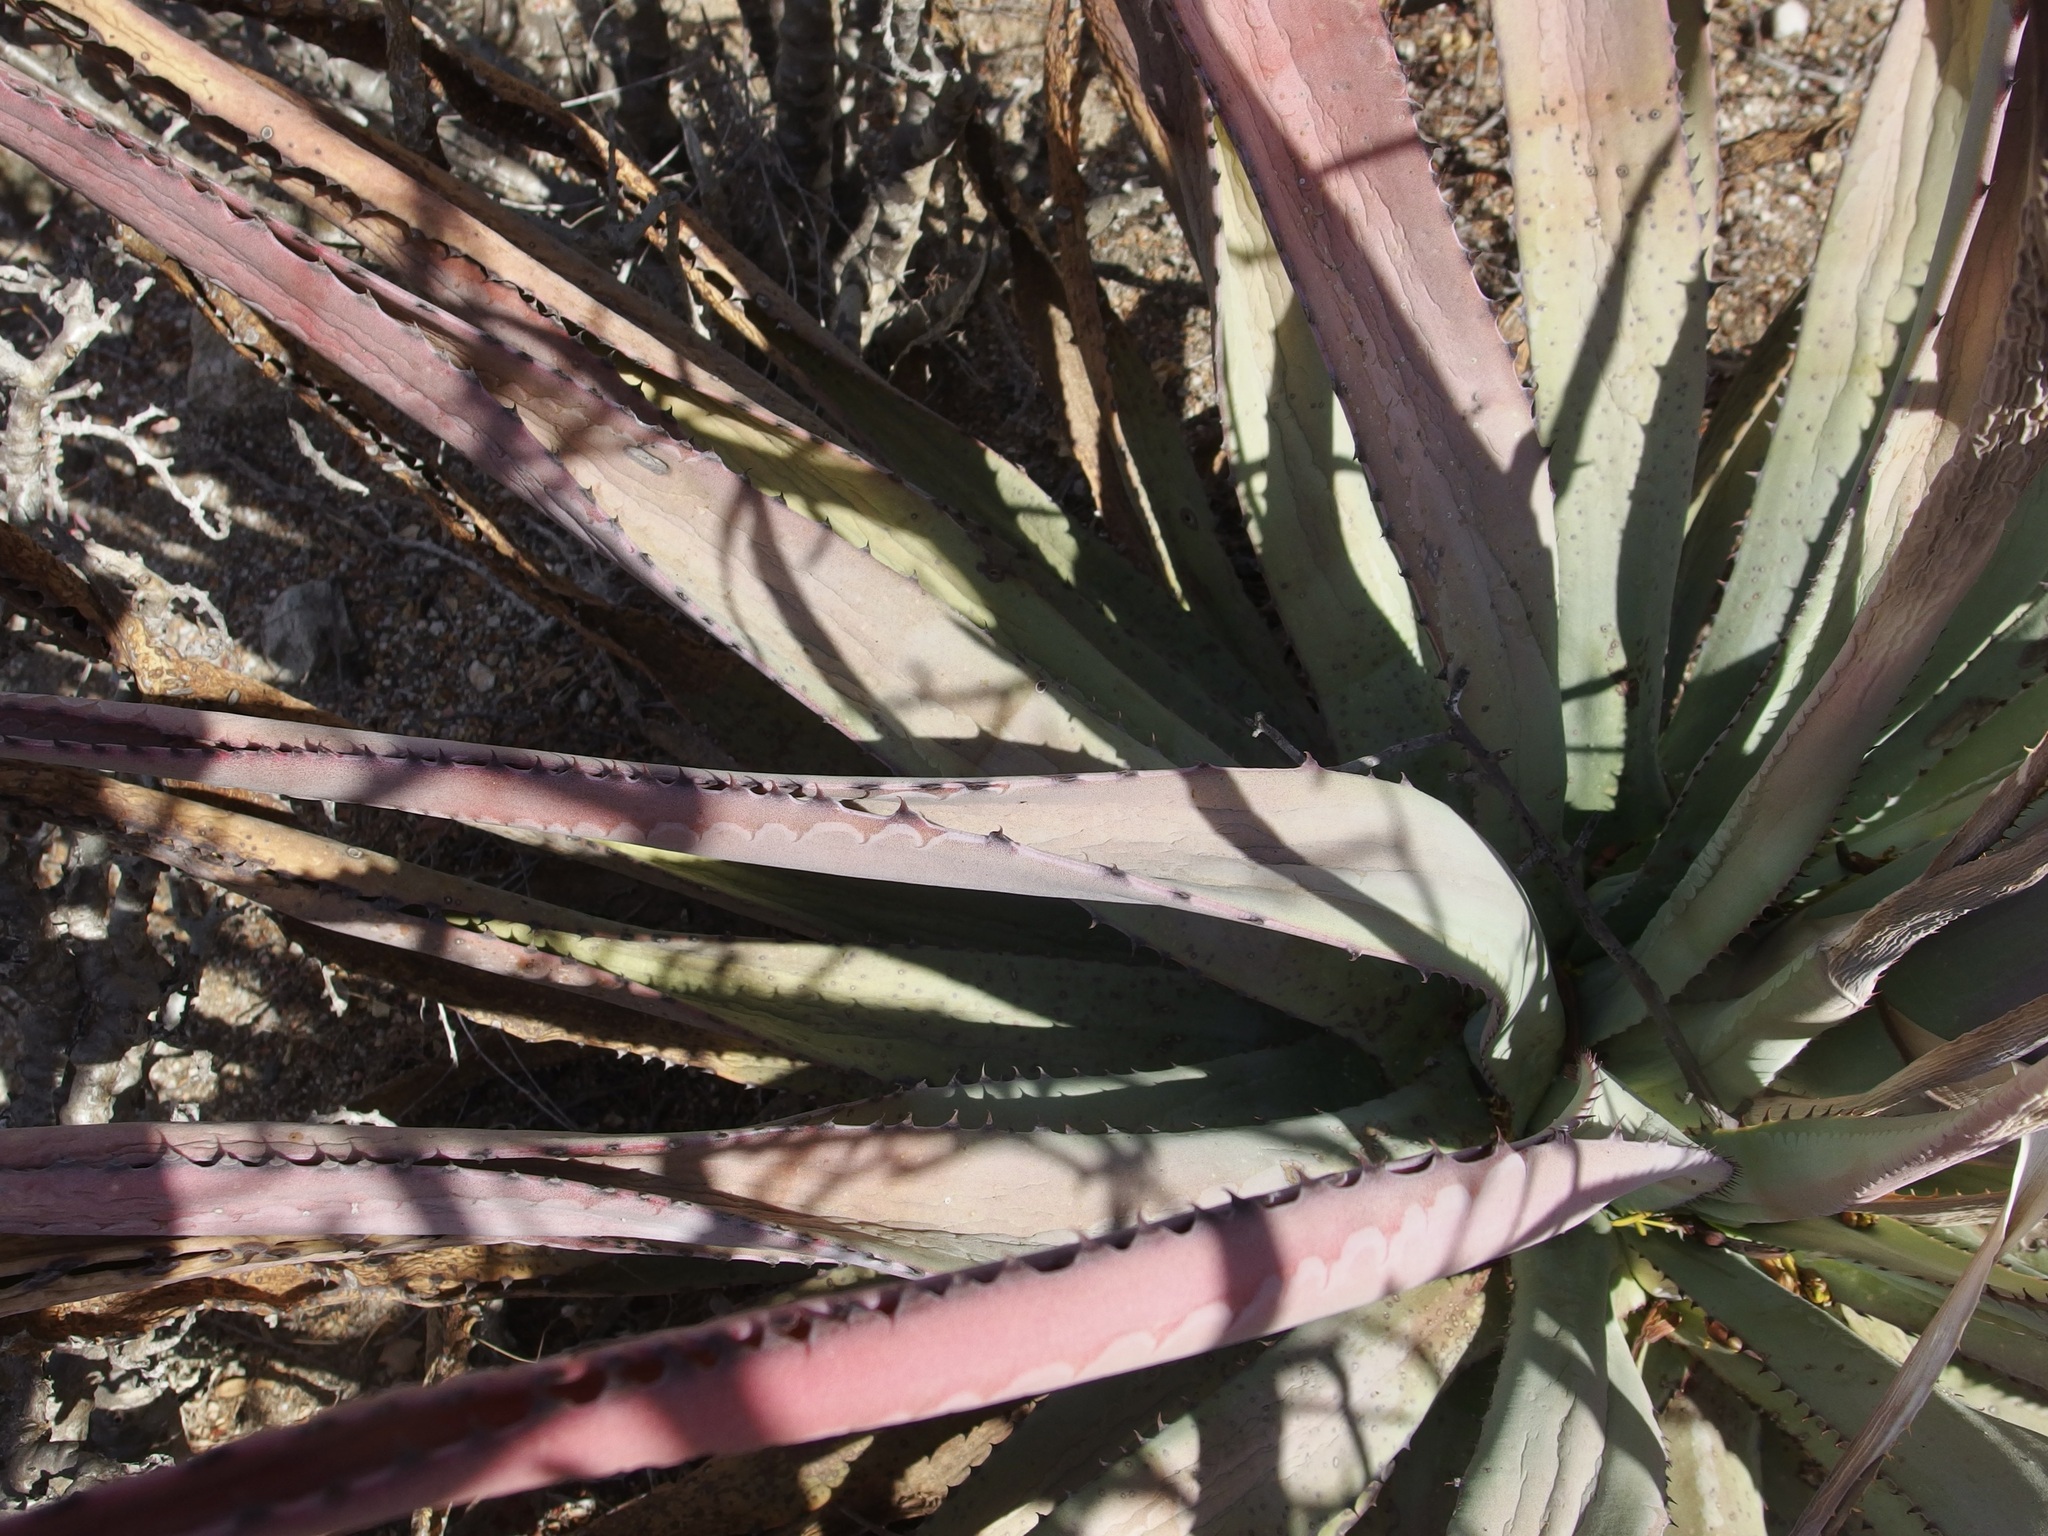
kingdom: Plantae
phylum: Tracheophyta
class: Liliopsida
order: Asparagales
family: Asparagaceae
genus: Agave
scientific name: Agave aurea
